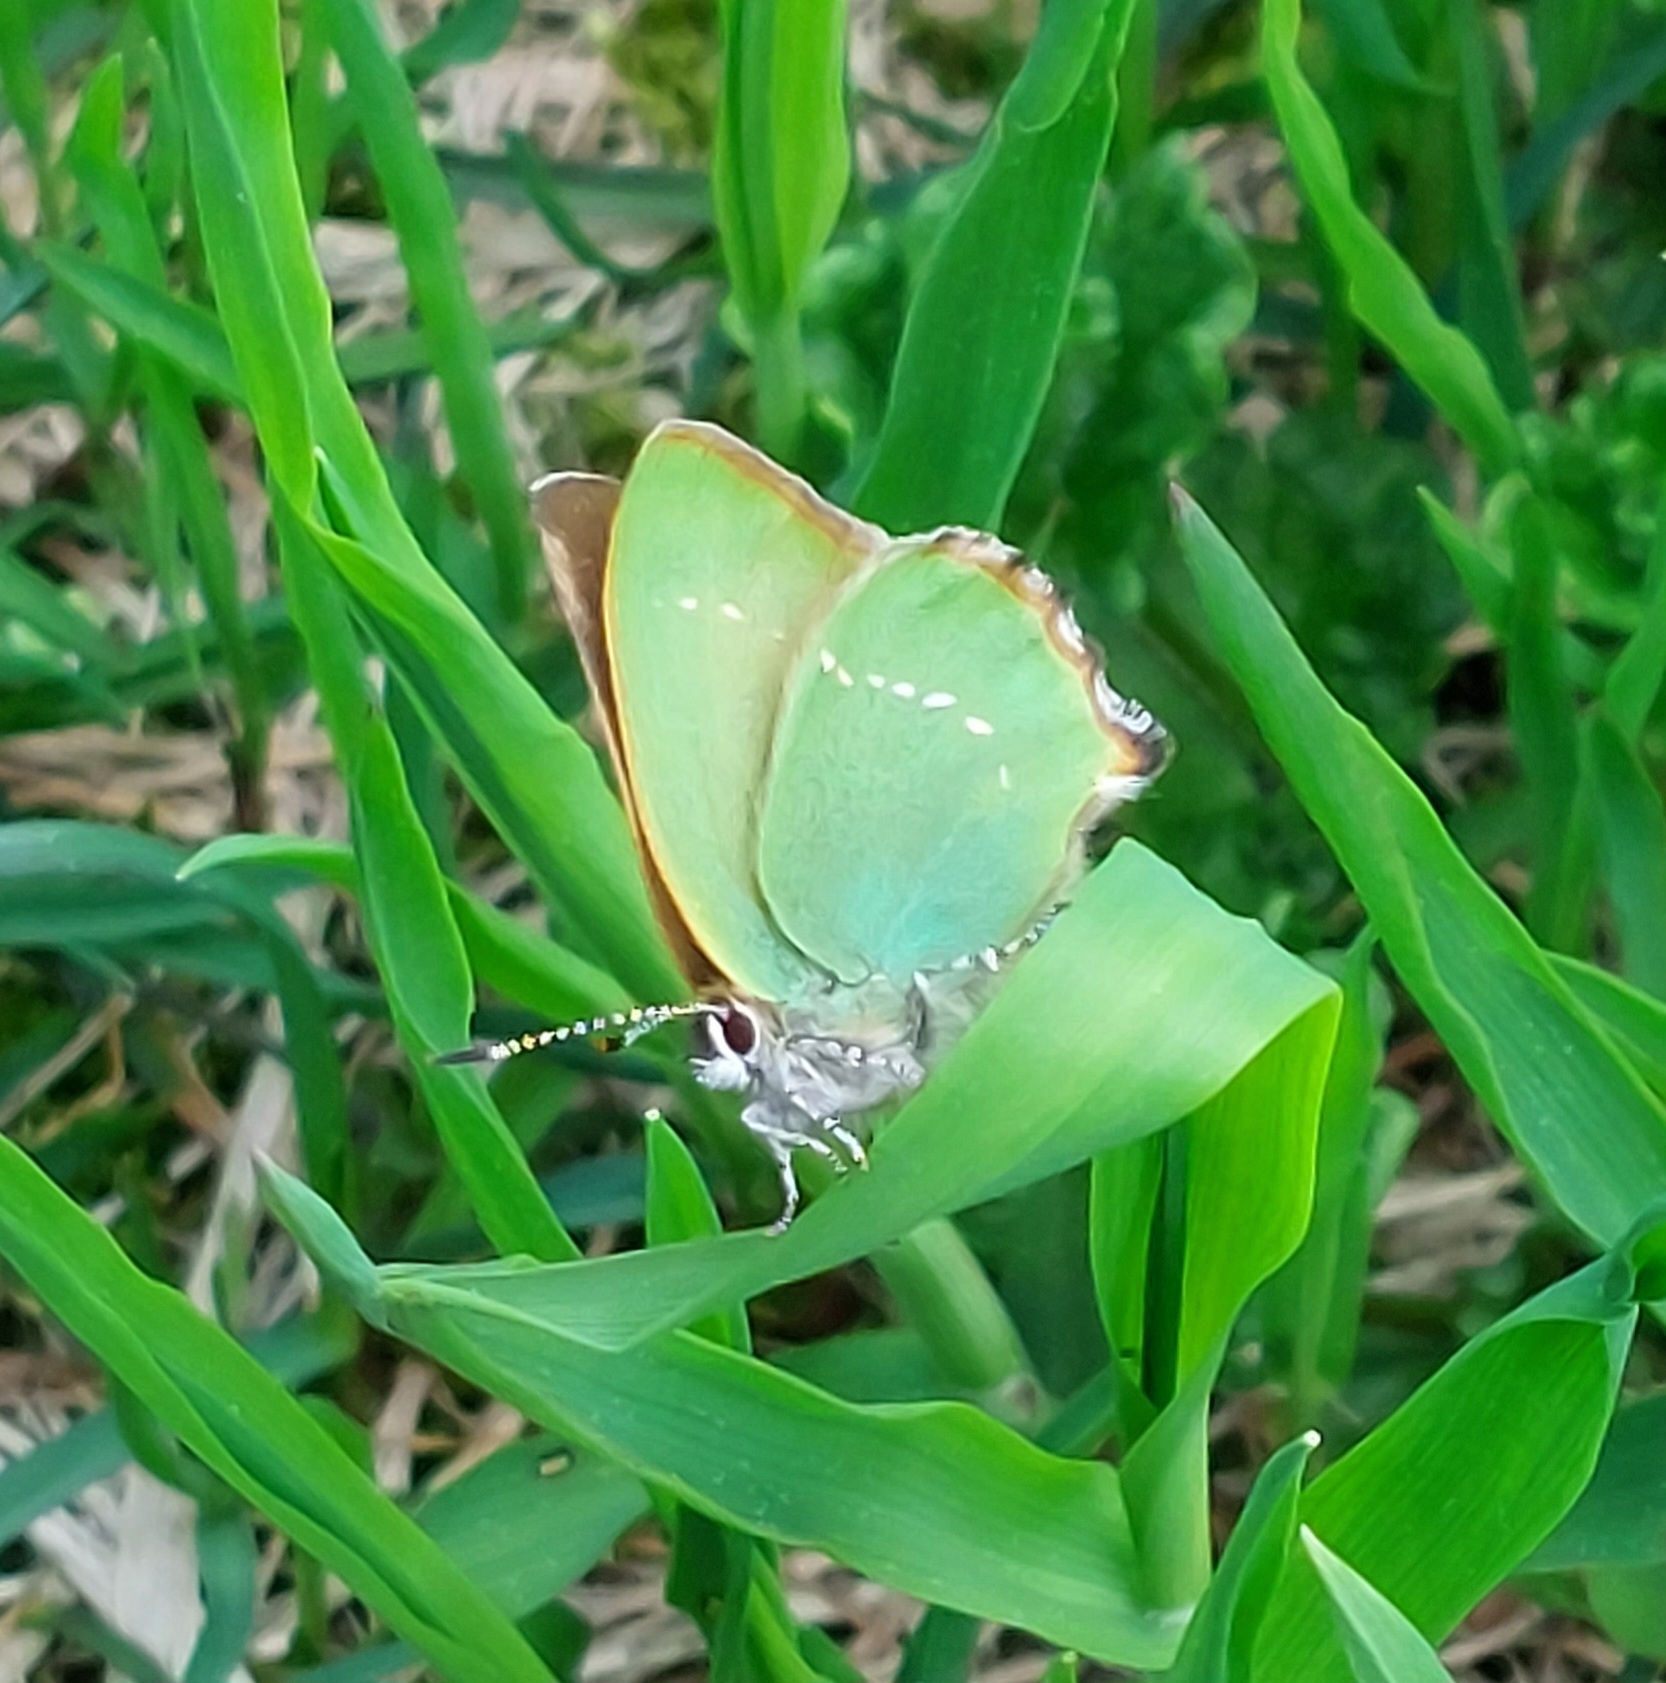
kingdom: Animalia
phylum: Arthropoda
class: Insecta
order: Lepidoptera
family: Lycaenidae
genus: Callophrys
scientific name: Callophrys rubi
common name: Green hairstreak
